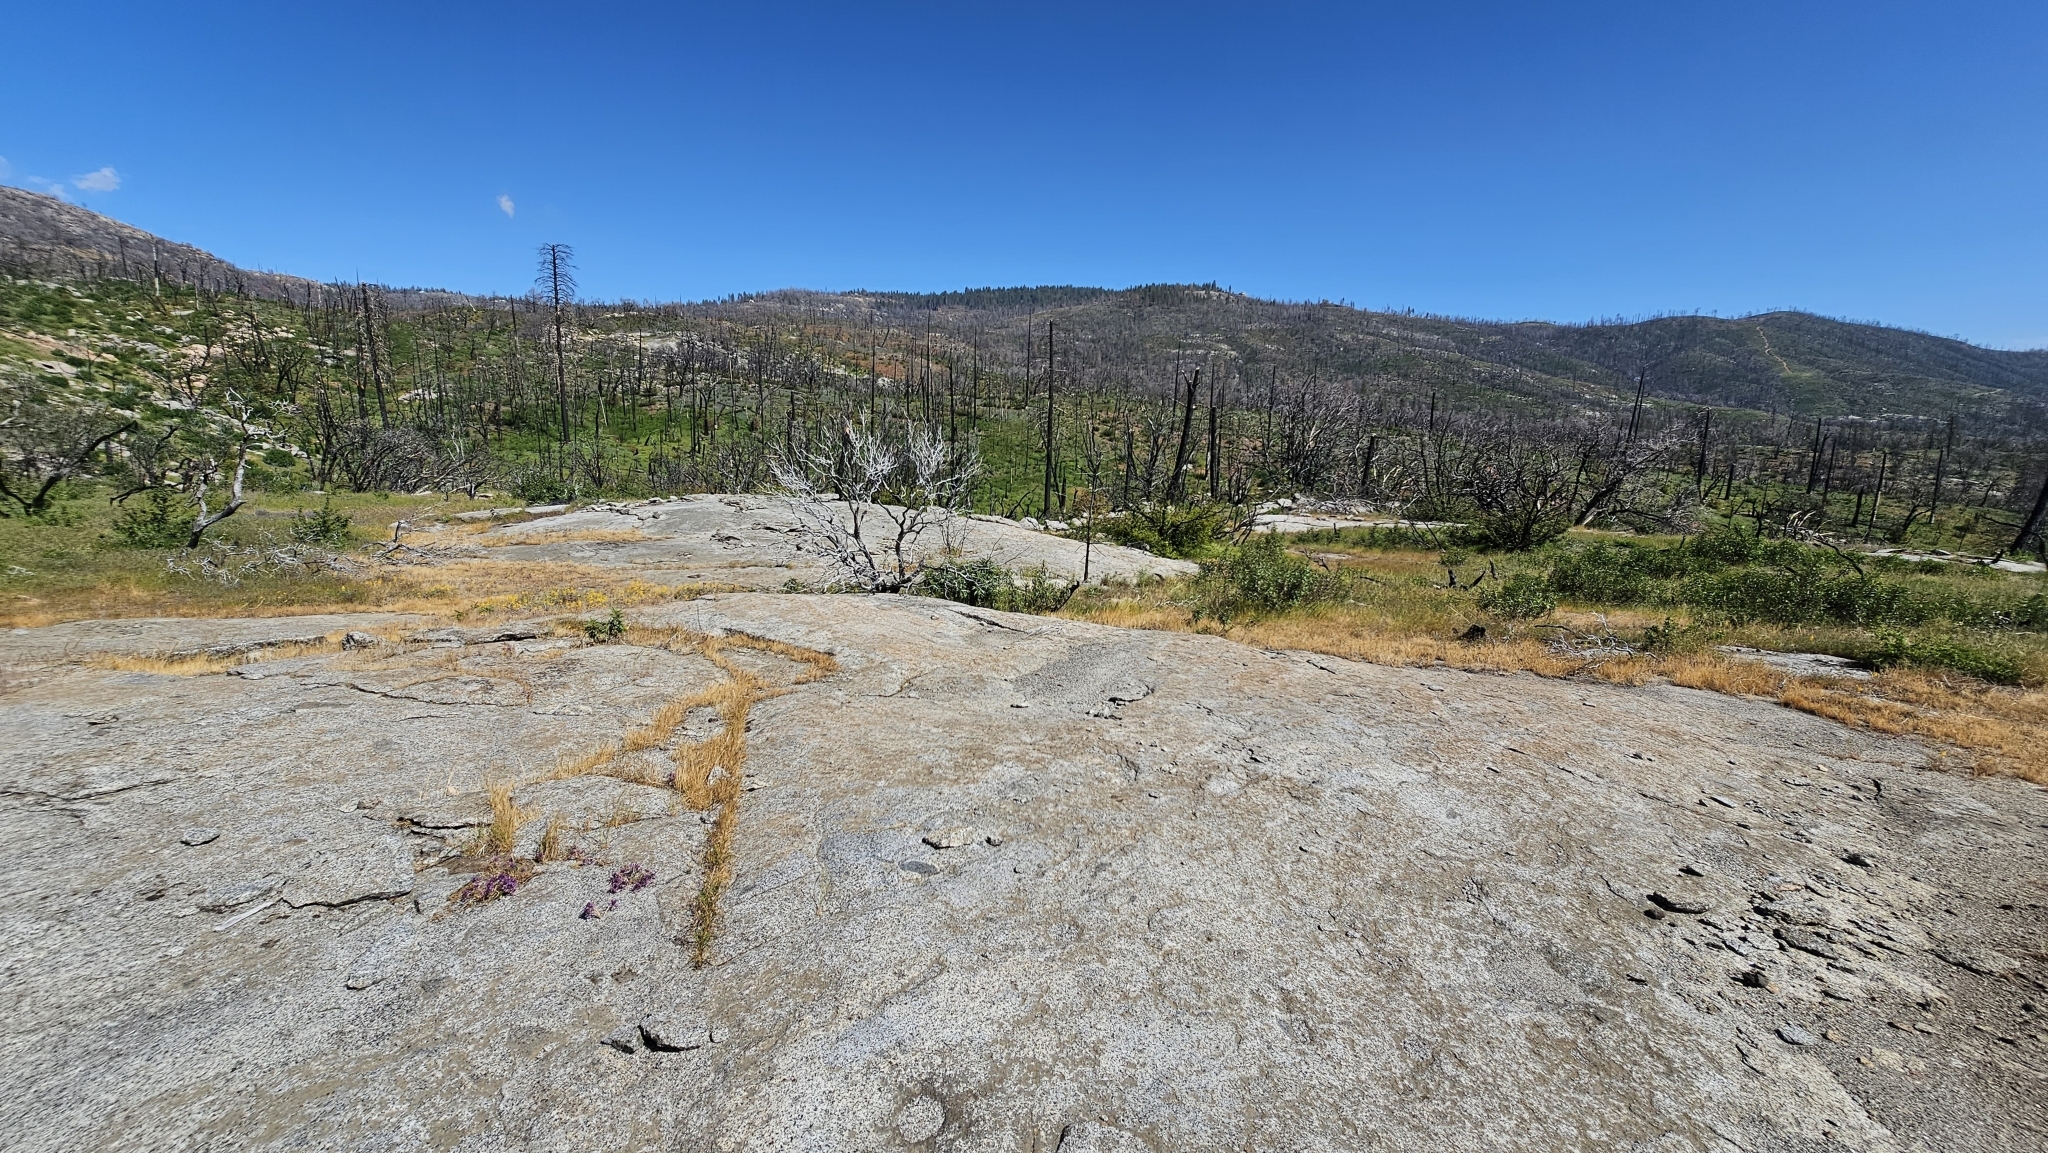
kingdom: Plantae
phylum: Tracheophyta
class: Liliopsida
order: Asparagales
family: Amaryllidaceae
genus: Allium
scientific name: Allium abramsii
